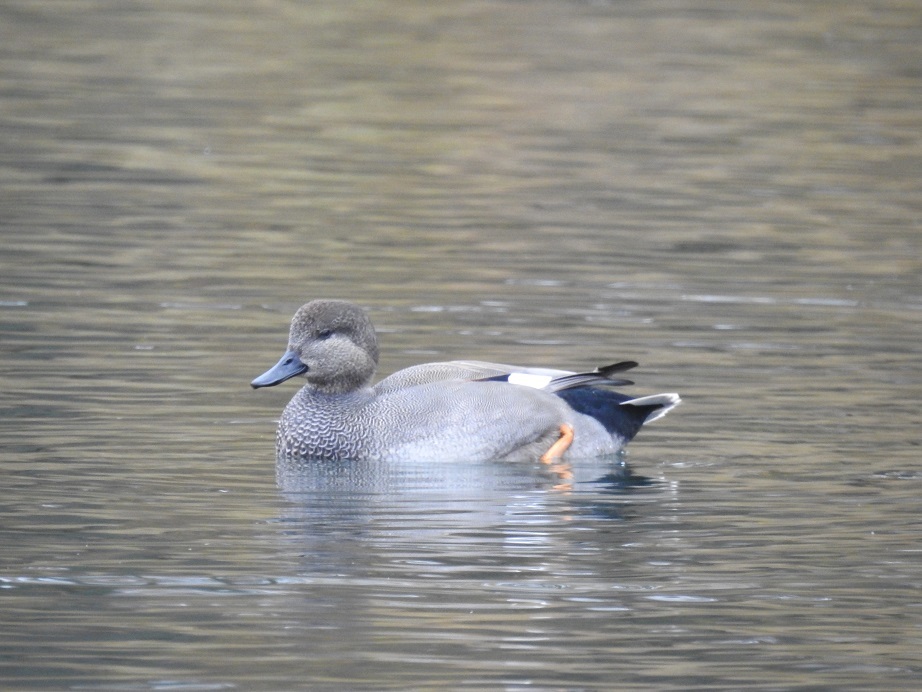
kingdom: Animalia
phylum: Chordata
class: Aves
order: Anseriformes
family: Anatidae
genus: Mareca
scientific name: Mareca strepera
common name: Gadwall
